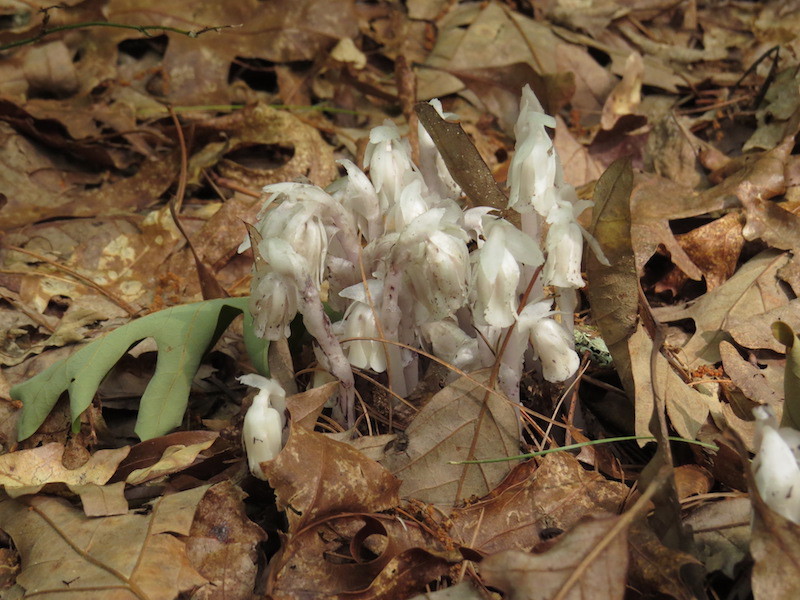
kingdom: Plantae
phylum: Tracheophyta
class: Magnoliopsida
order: Ericales
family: Ericaceae
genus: Monotropa
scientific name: Monotropa uniflora
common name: Convulsion root
